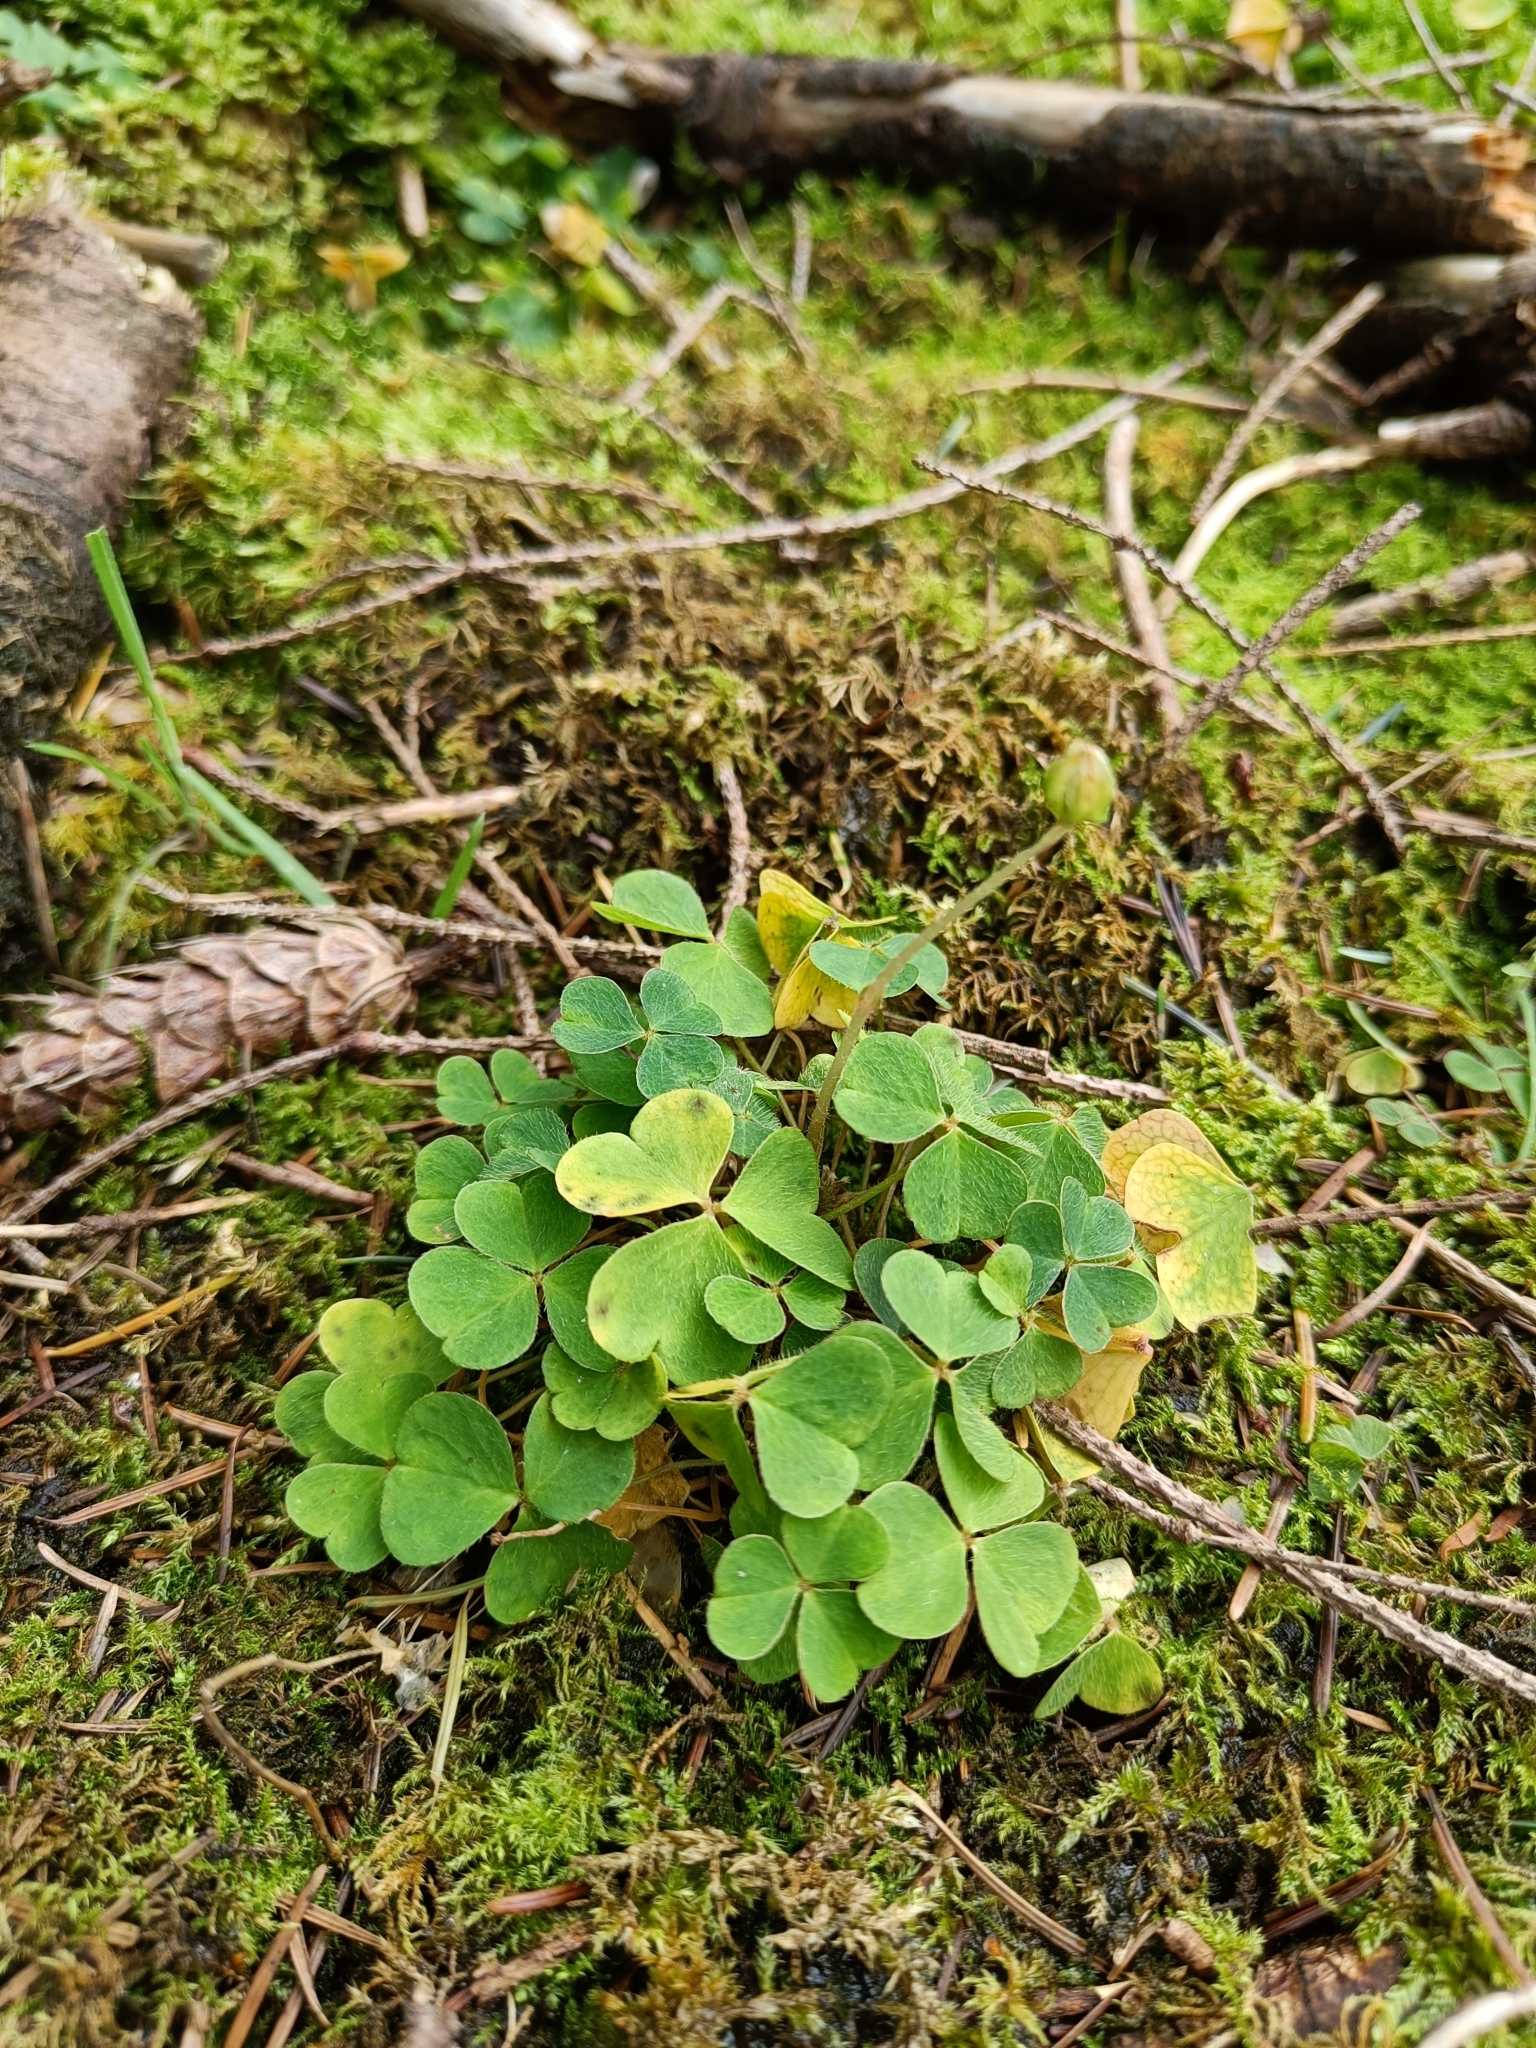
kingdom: Plantae
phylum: Tracheophyta
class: Magnoliopsida
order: Oxalidales
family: Oxalidaceae
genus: Oxalis
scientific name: Oxalis acetosella
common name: Wood-sorrel
